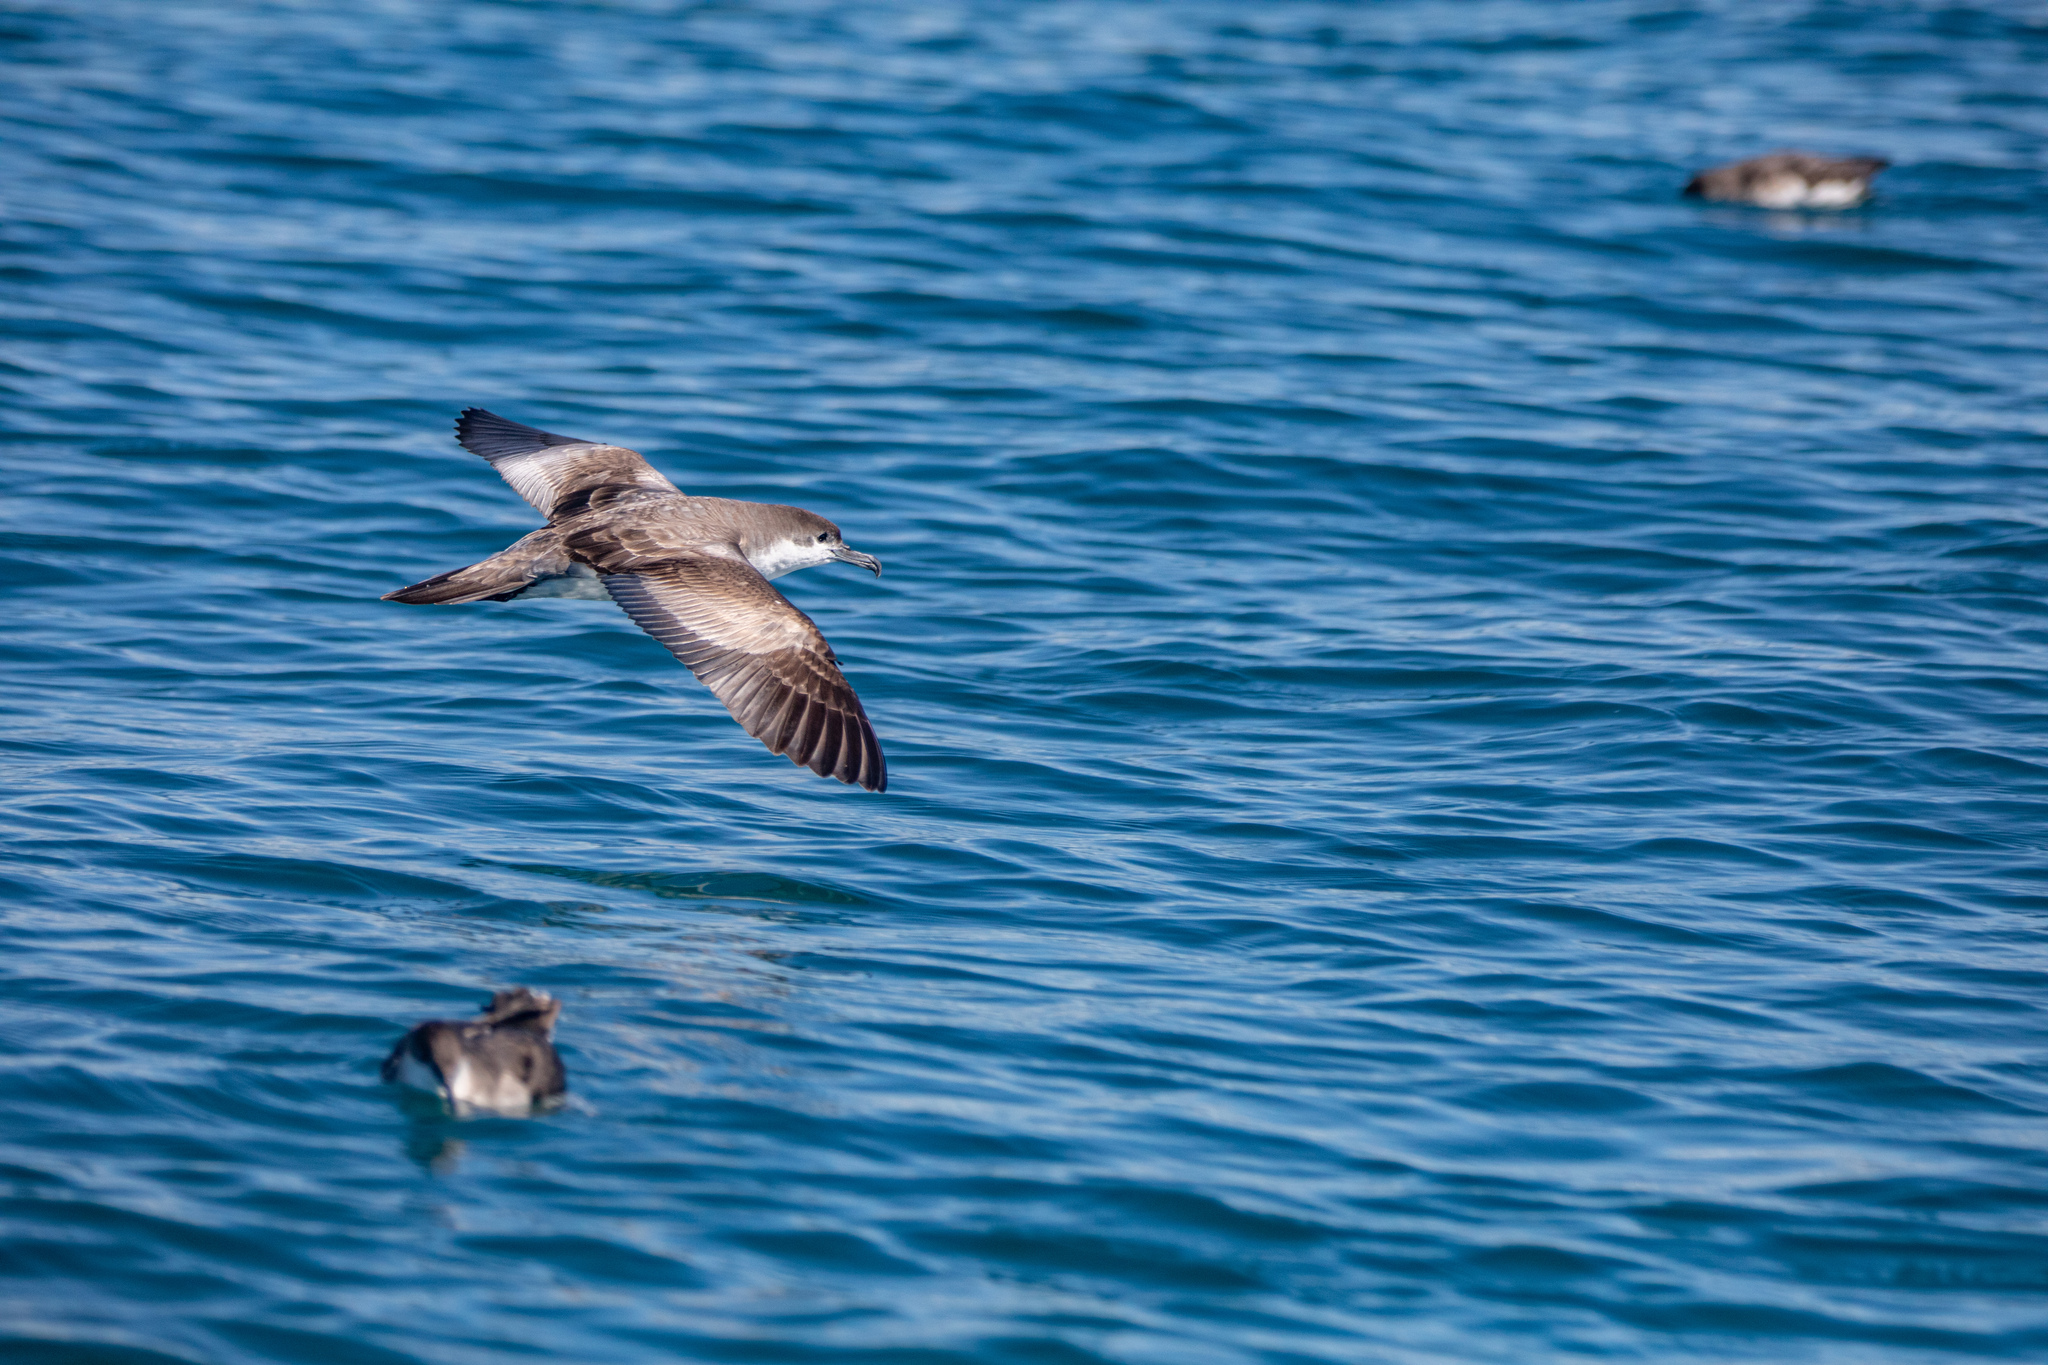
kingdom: Animalia
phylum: Chordata
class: Aves
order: Procellariiformes
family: Procellariidae
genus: Puffinus
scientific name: Puffinus bulleri
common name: Buller's shearwater
